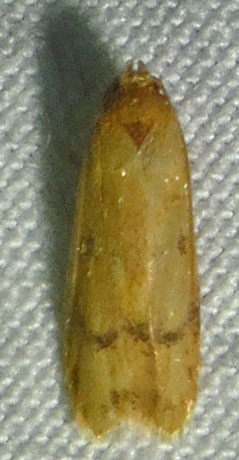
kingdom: Animalia
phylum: Arthropoda
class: Insecta
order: Lepidoptera
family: Autostichidae
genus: Gerdana
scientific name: Gerdana caritella
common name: Gerdana moth
